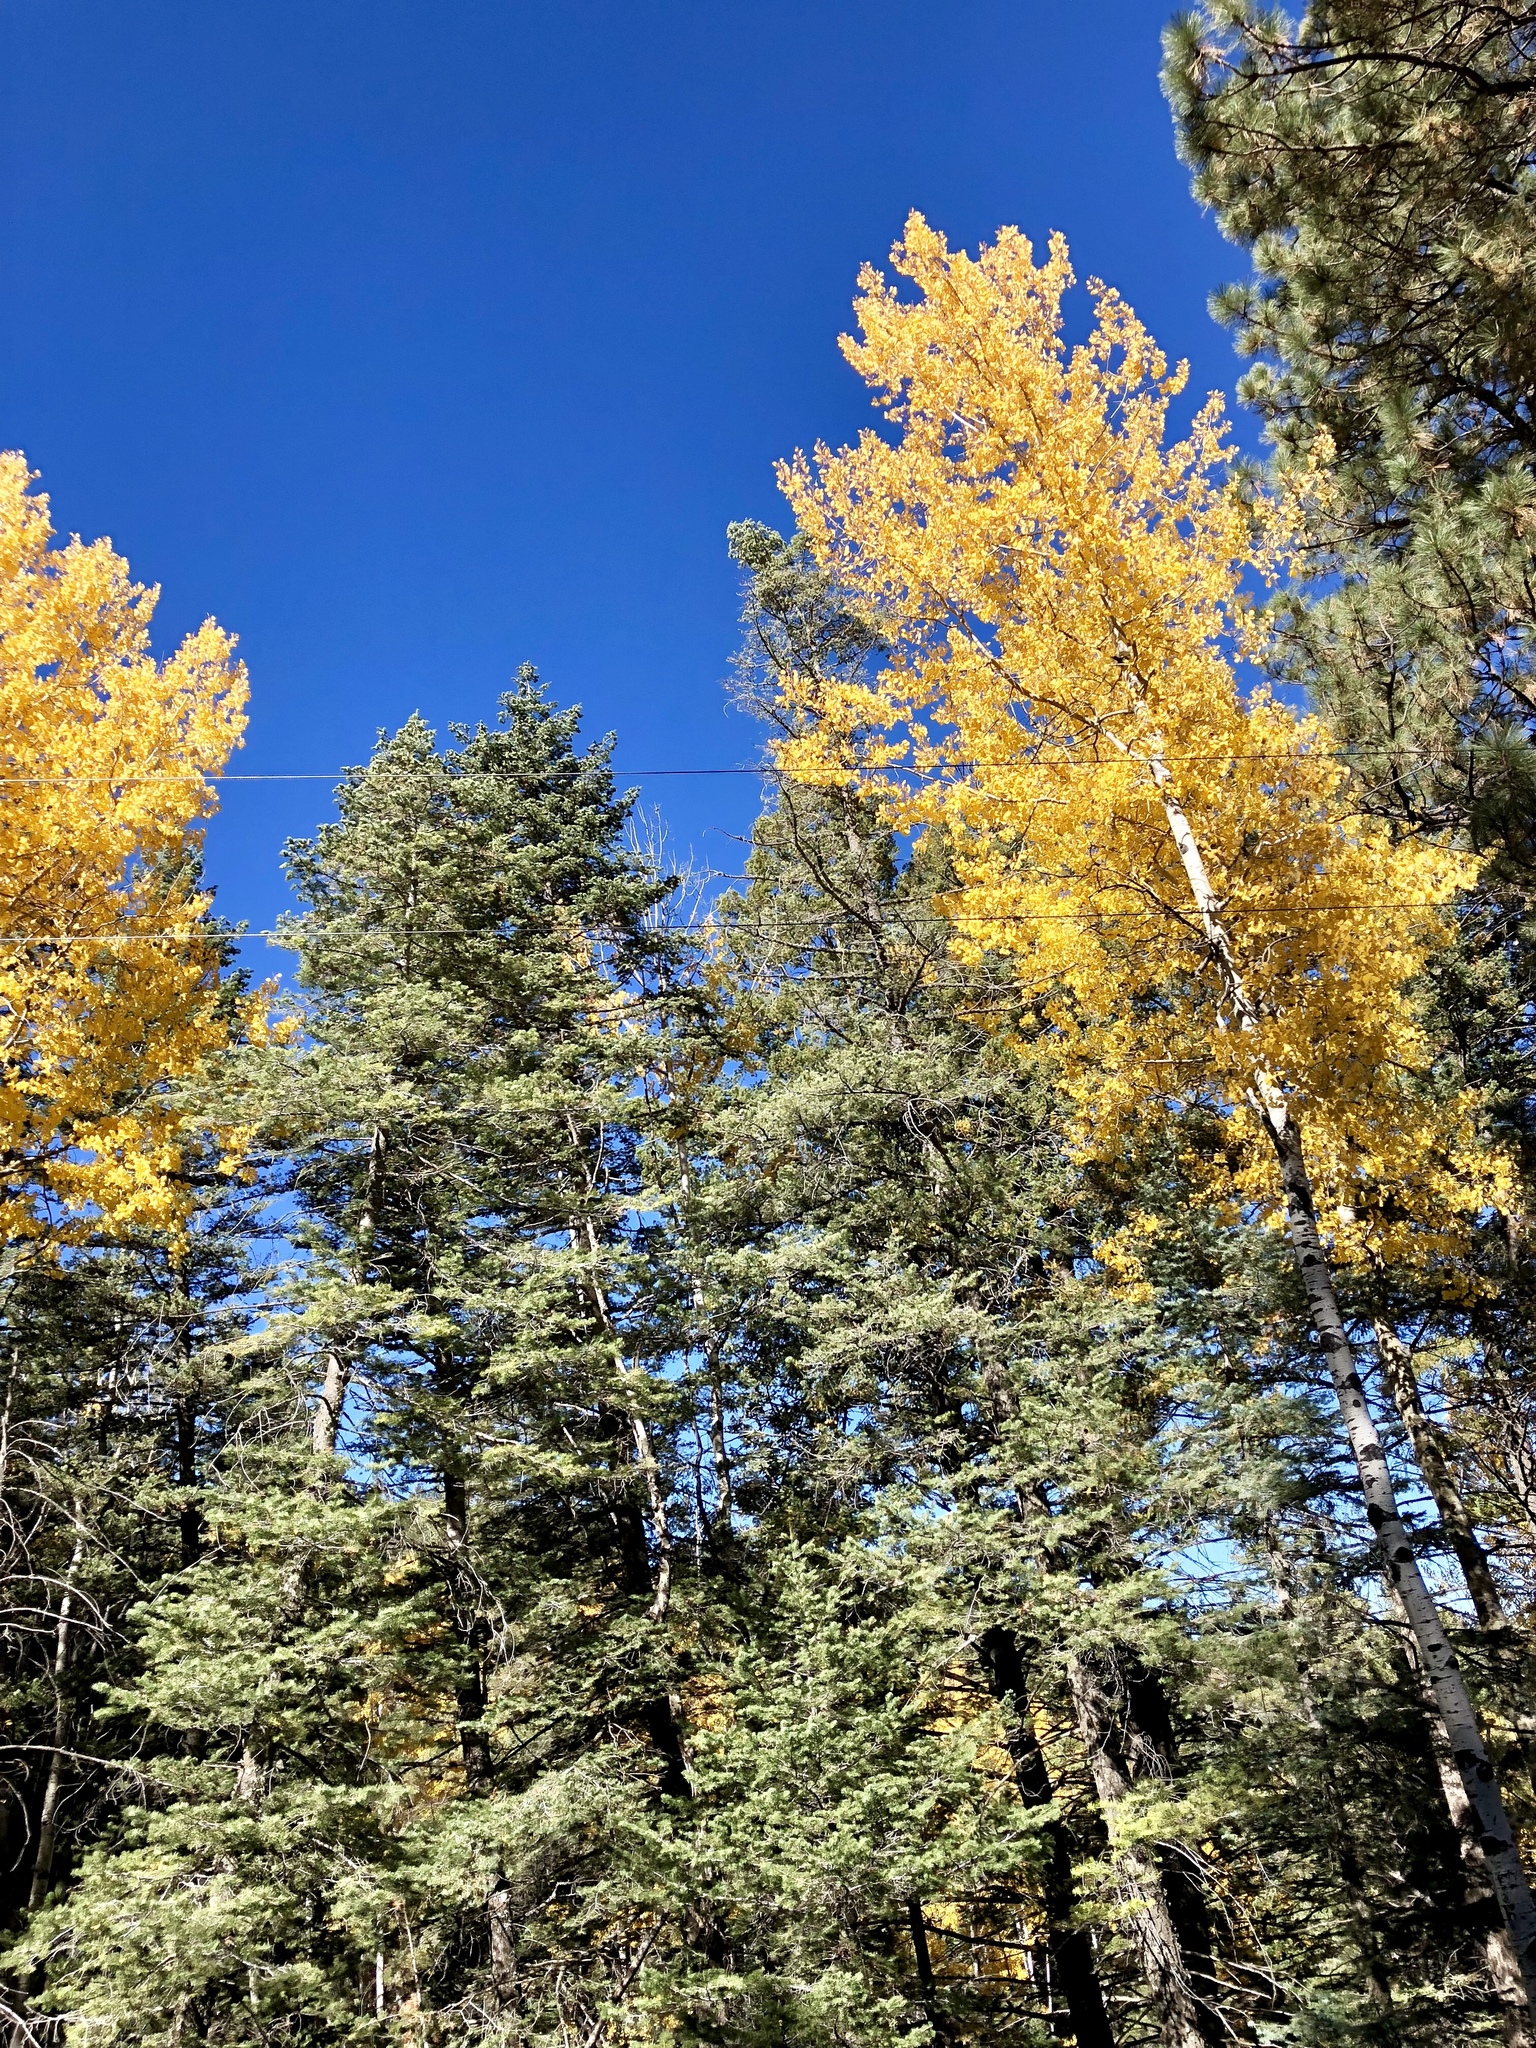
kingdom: Plantae
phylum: Tracheophyta
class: Magnoliopsida
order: Malpighiales
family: Salicaceae
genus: Populus
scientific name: Populus tremuloides
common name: Quaking aspen
